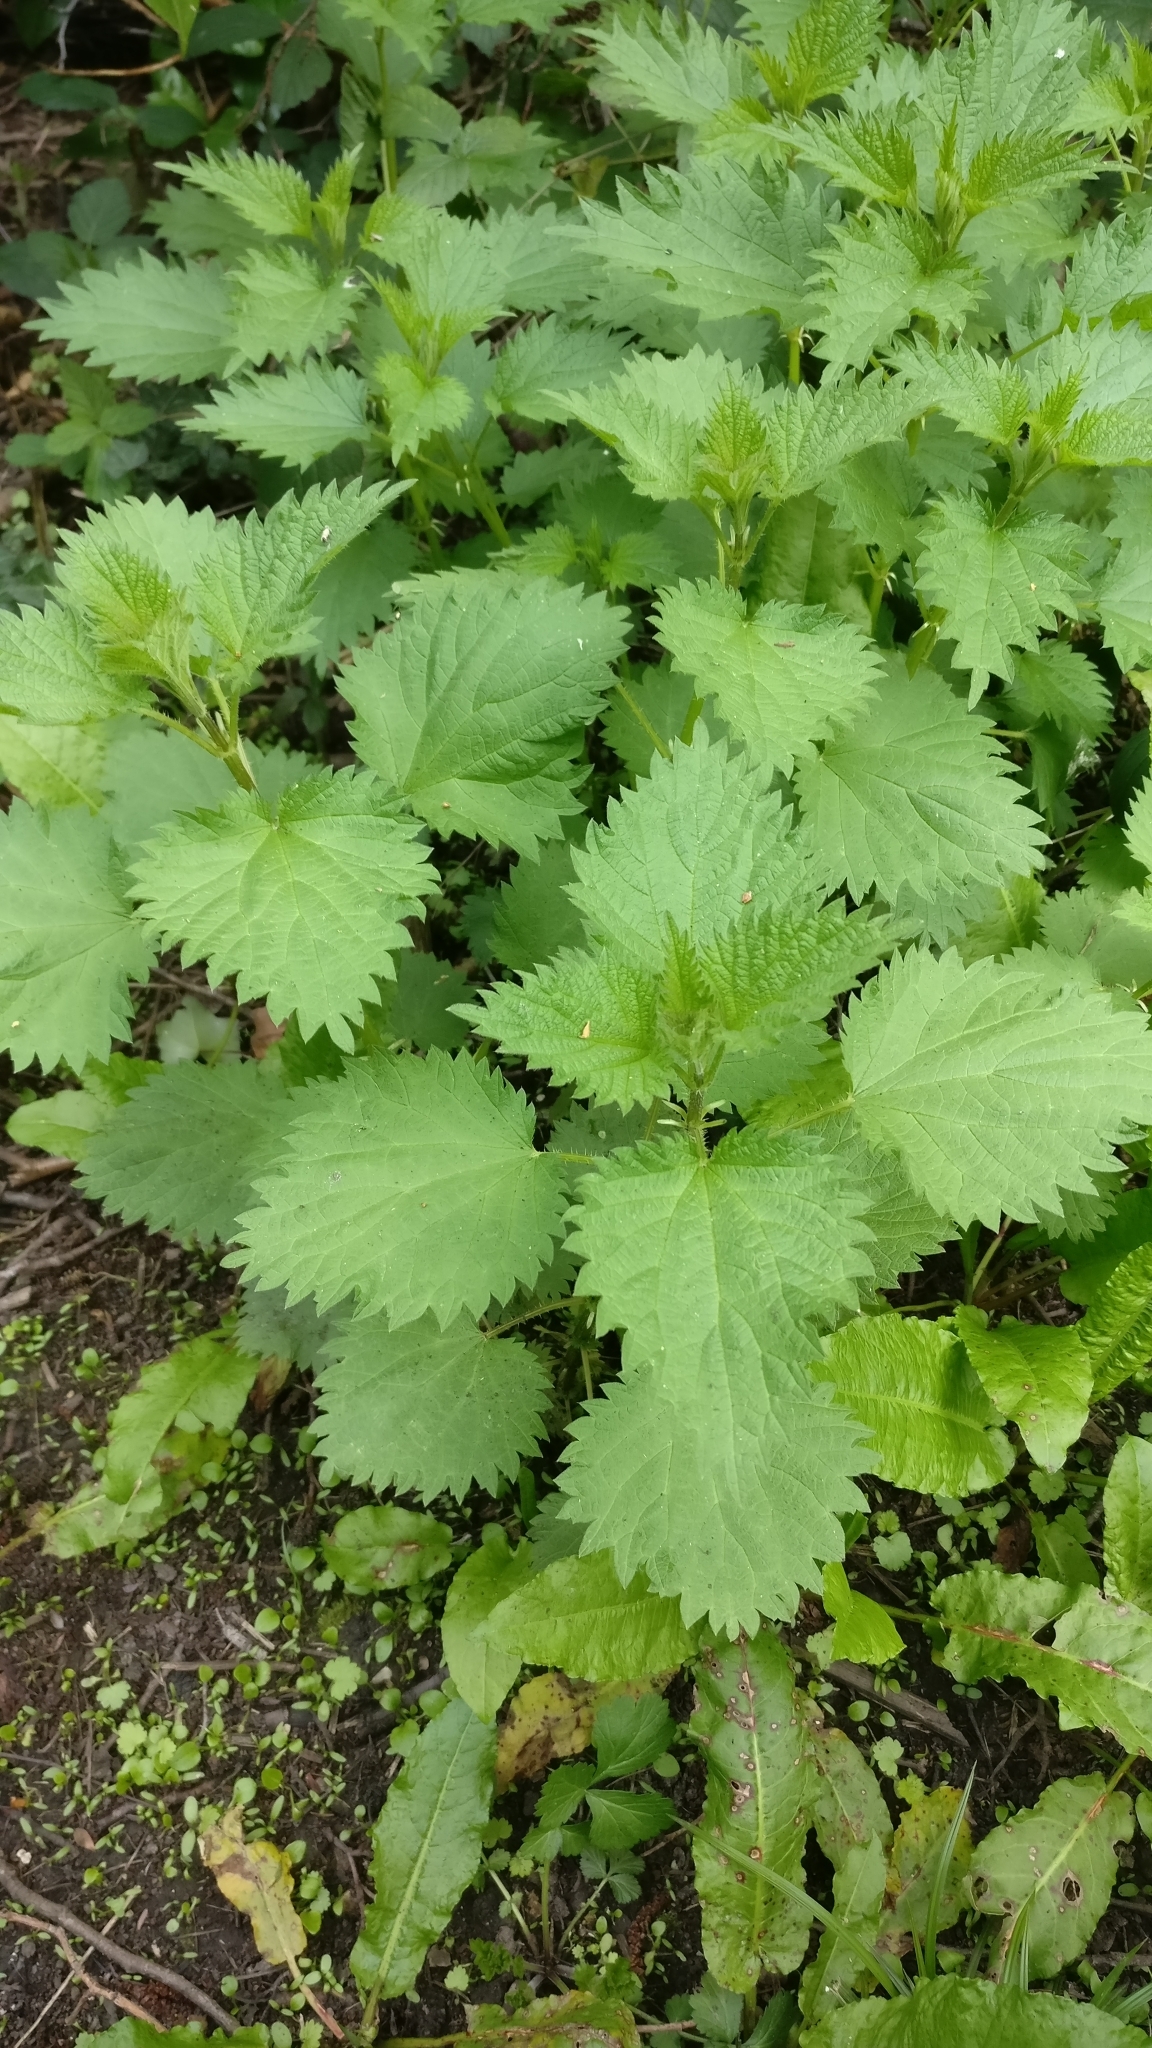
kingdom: Plantae
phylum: Tracheophyta
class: Magnoliopsida
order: Rosales
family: Urticaceae
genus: Urtica
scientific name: Urtica dioica
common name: Common nettle
